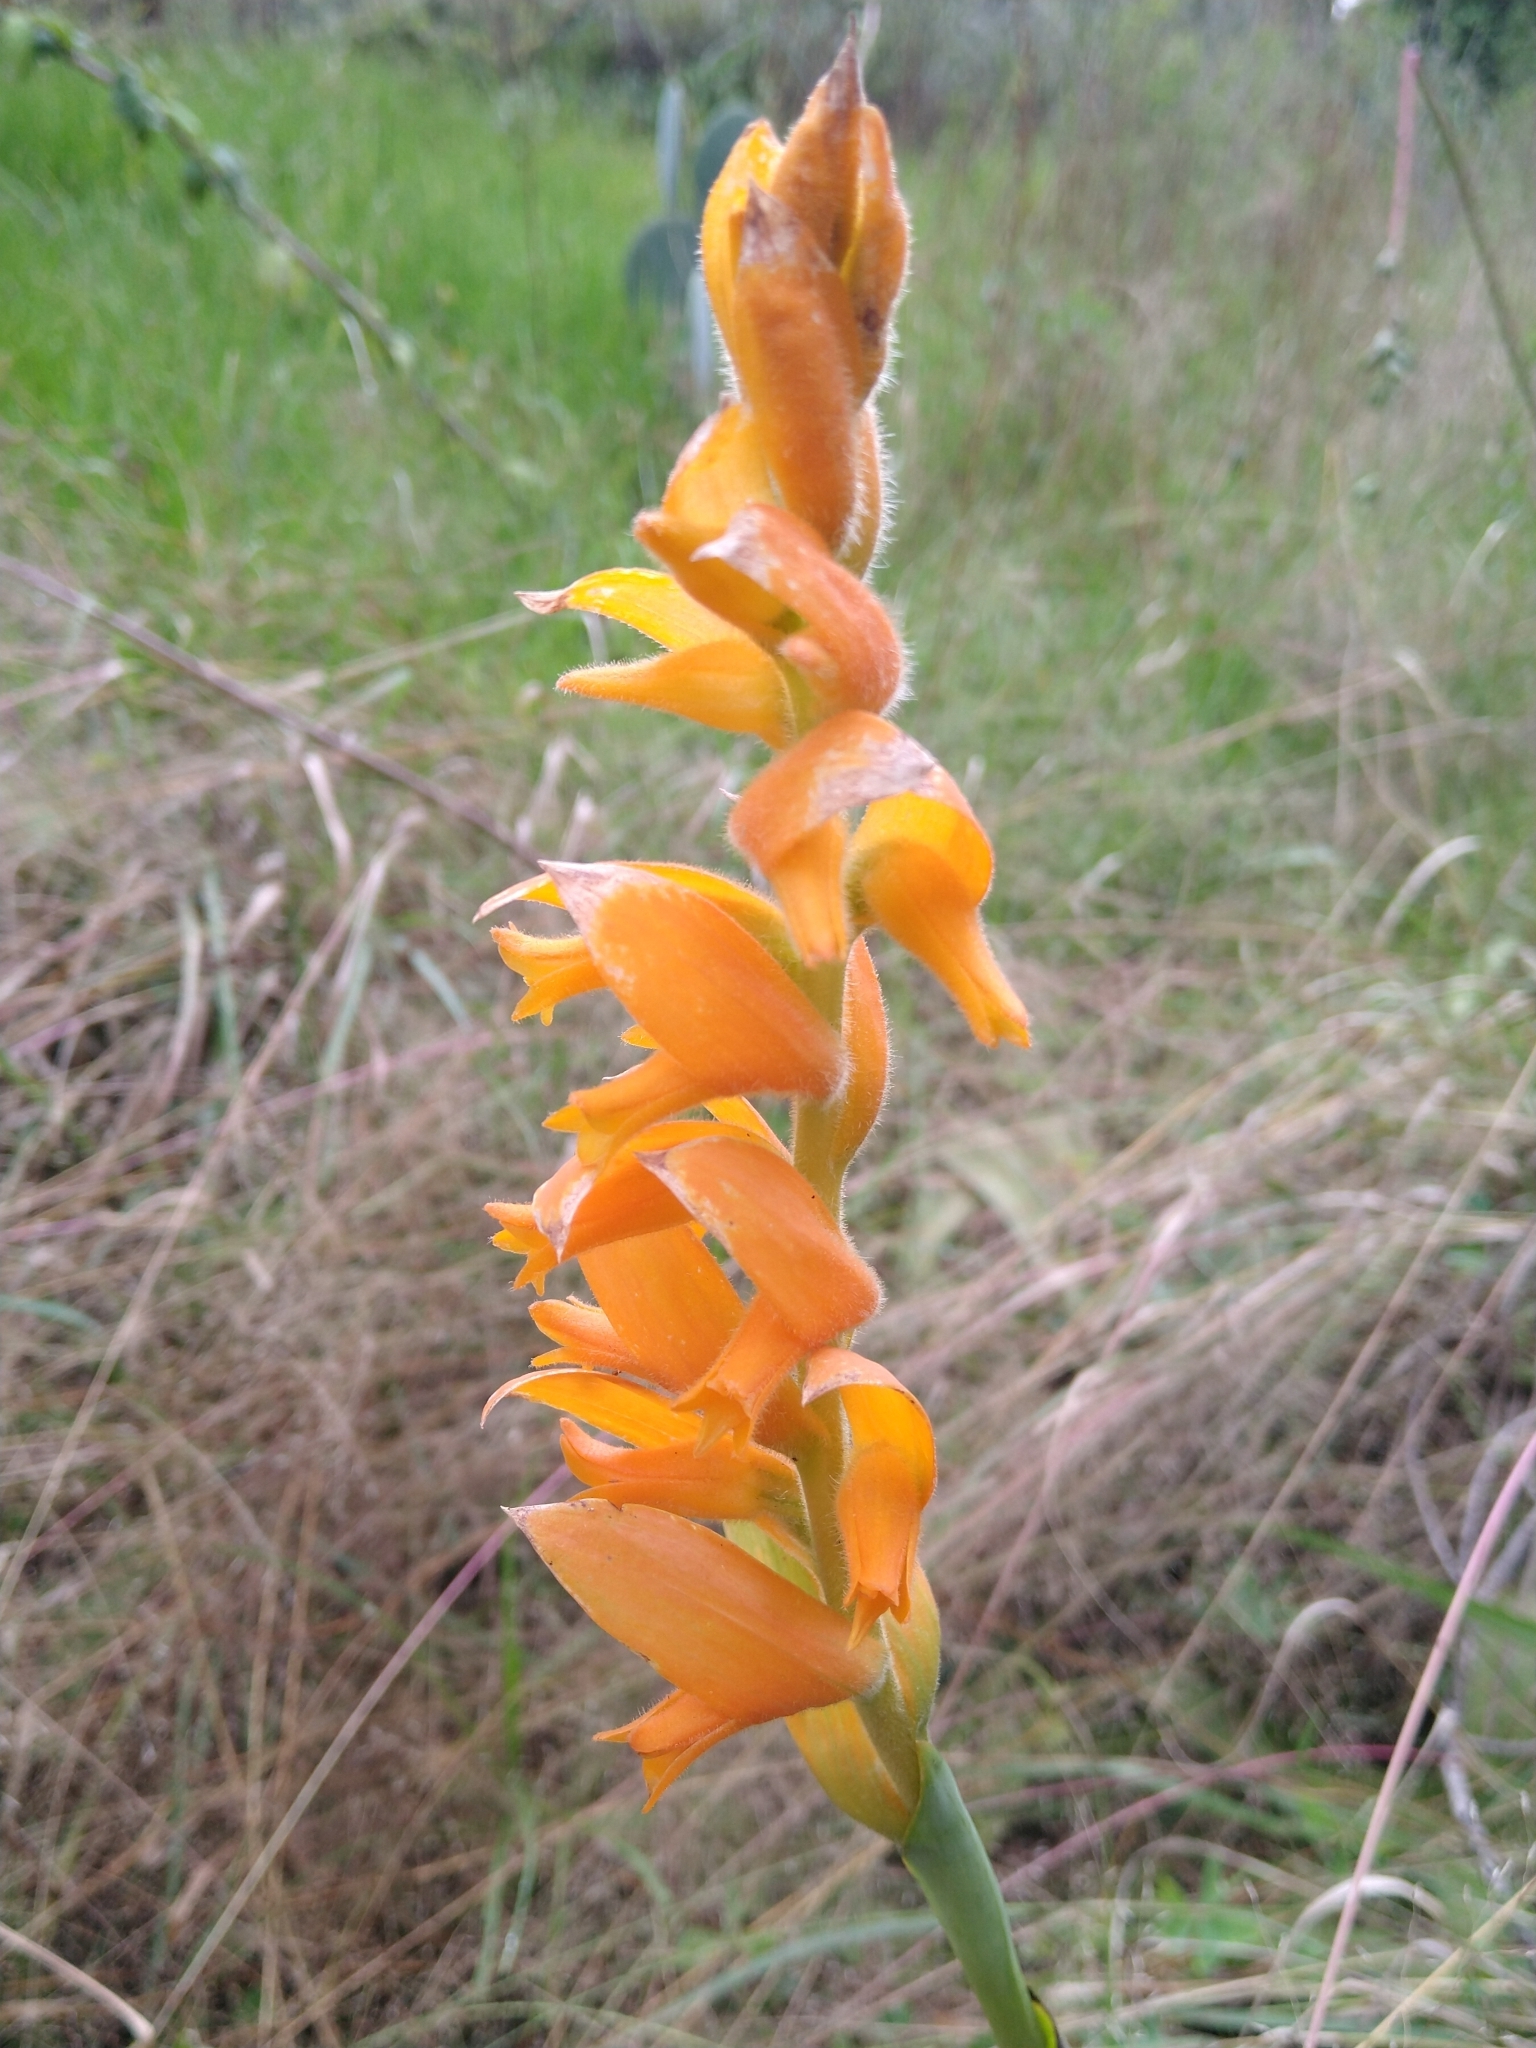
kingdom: Plantae
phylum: Tracheophyta
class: Liliopsida
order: Asparagales
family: Orchidaceae
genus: Dichromanthus
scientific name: Dichromanthus aurantiacus
